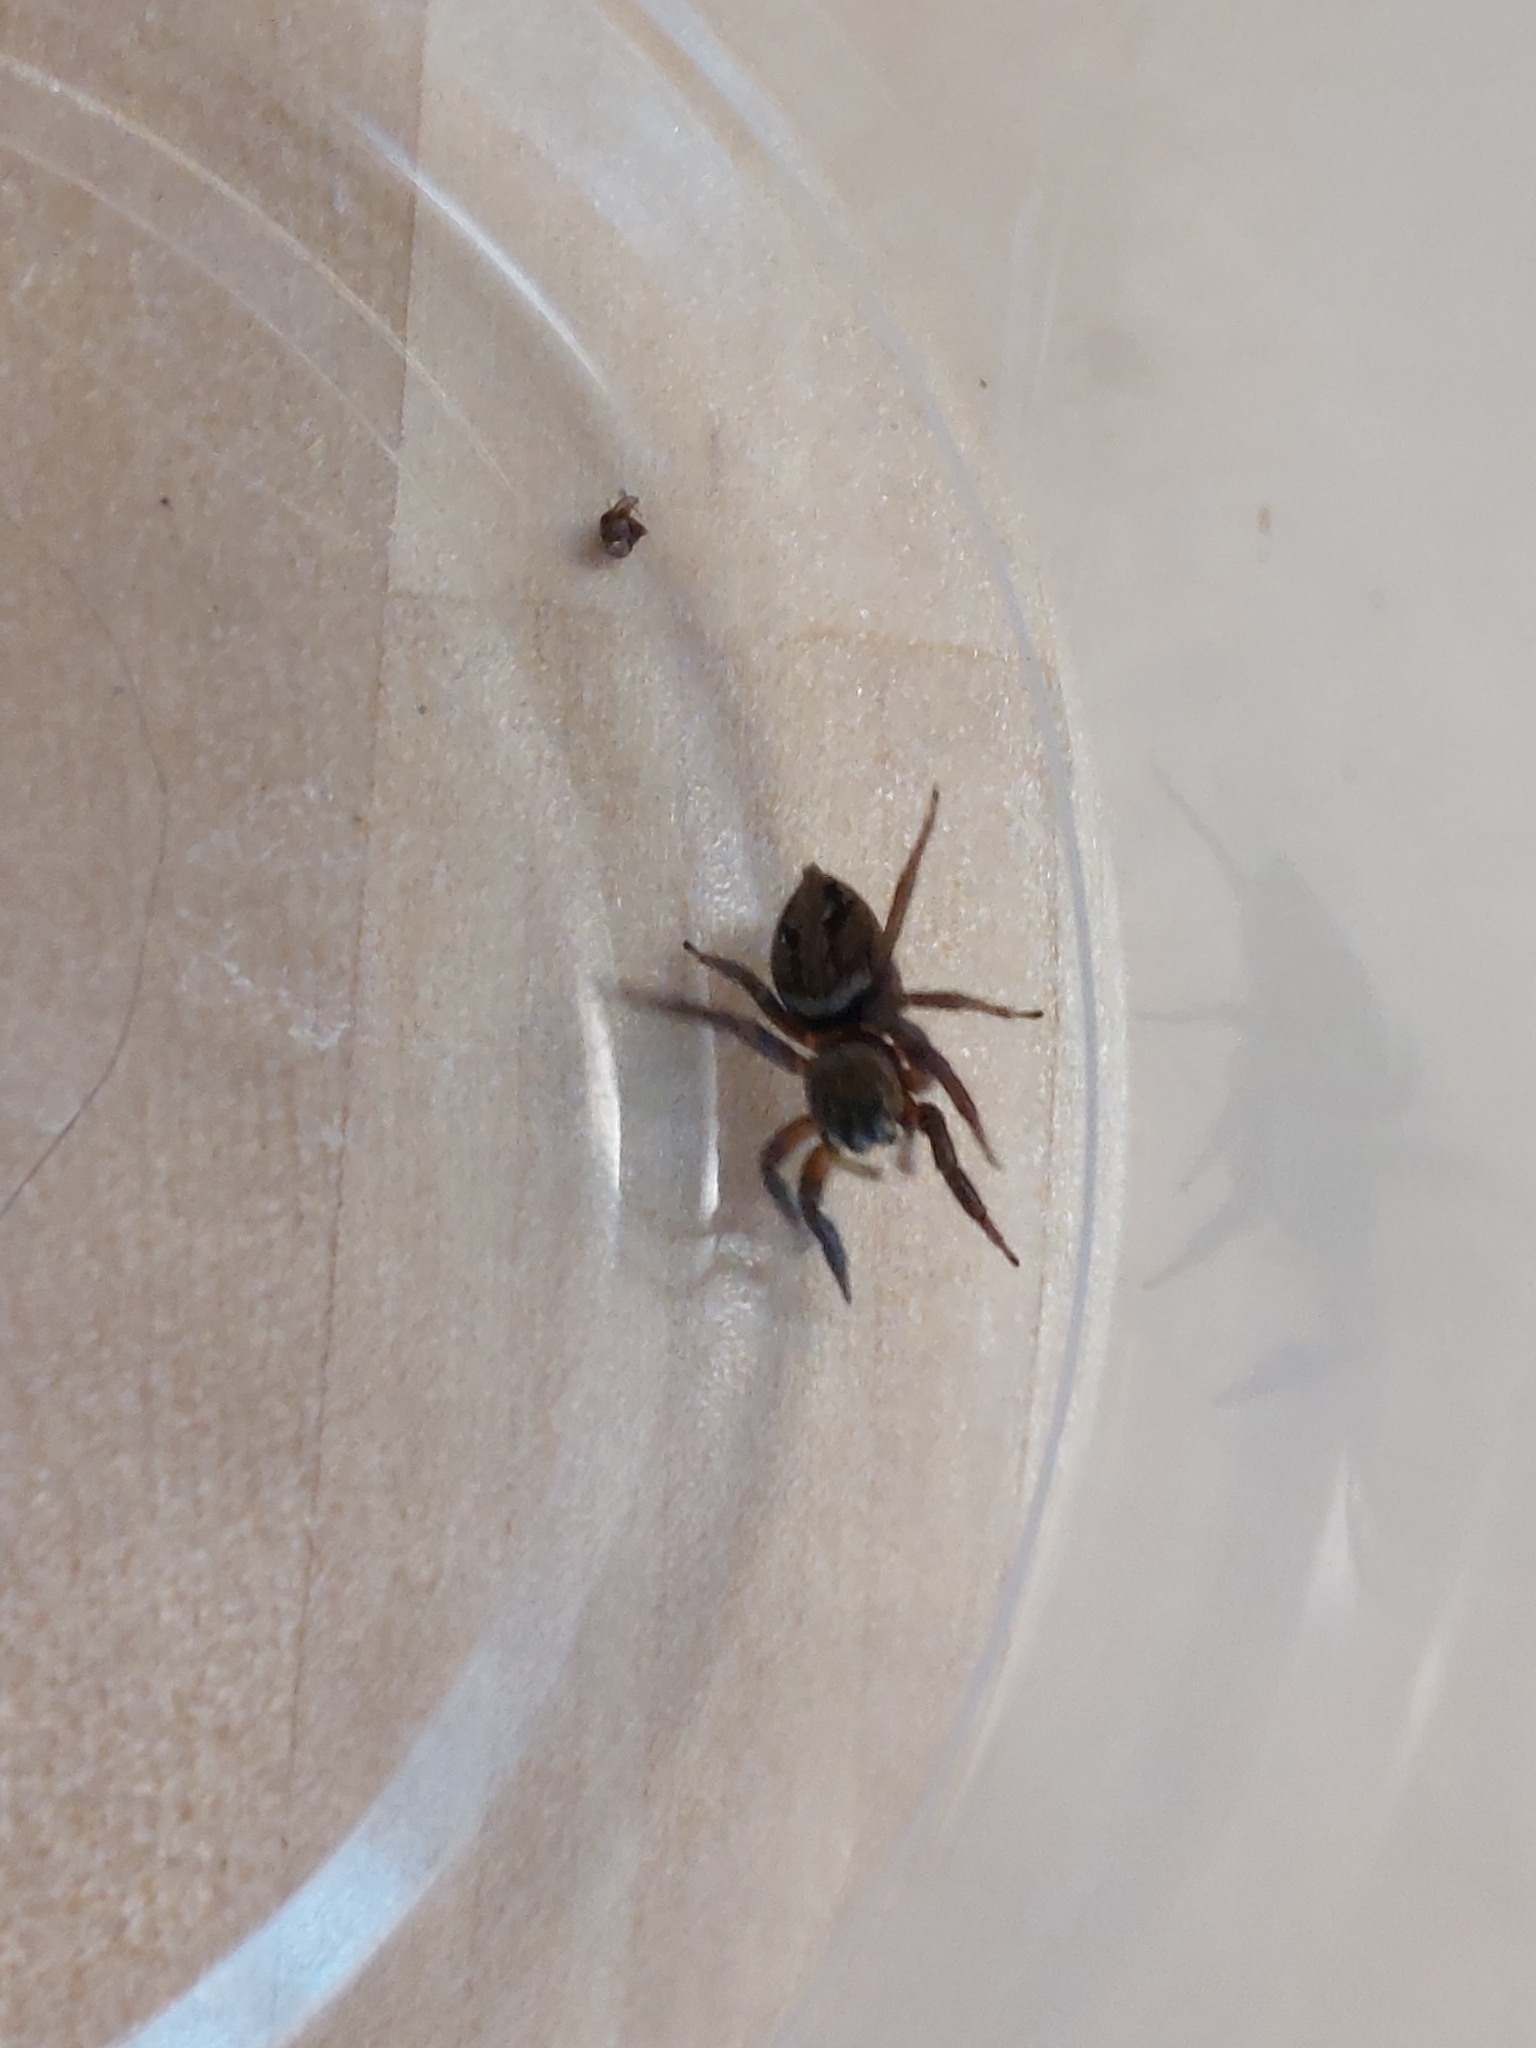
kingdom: Animalia
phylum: Arthropoda
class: Arachnida
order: Araneae
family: Salticidae
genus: Hasarius
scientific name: Hasarius adansoni
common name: Jumping spider
